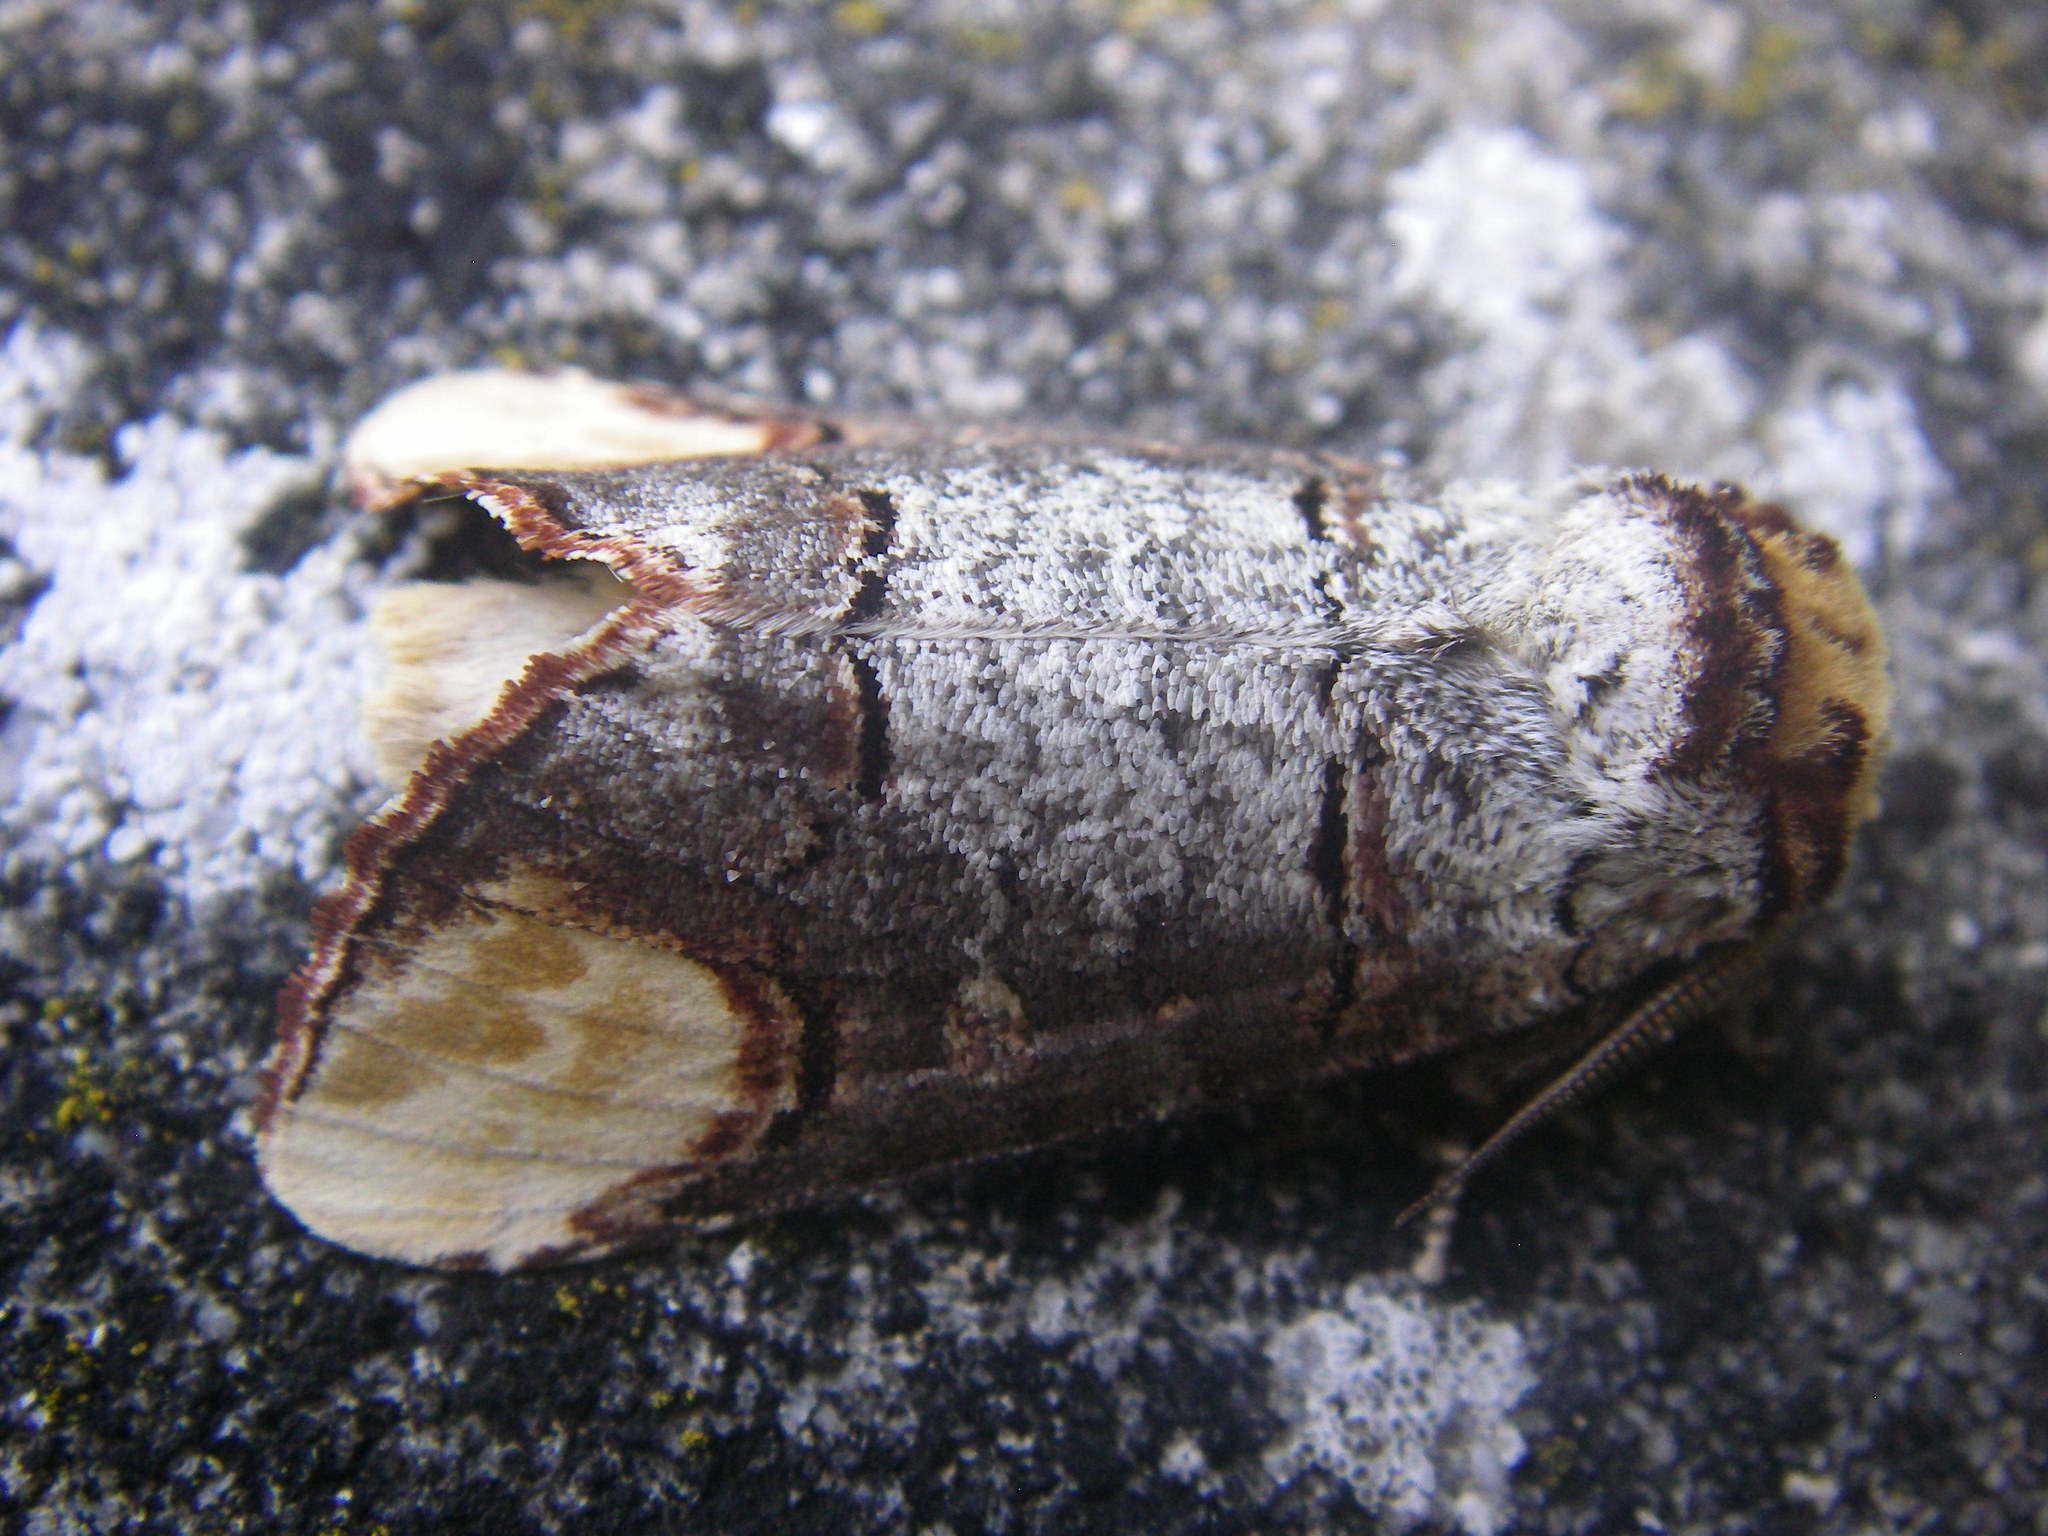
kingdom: Animalia
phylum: Arthropoda
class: Insecta
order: Lepidoptera
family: Notodontidae
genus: Phalera
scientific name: Phalera bucephala
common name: Buff-tip
